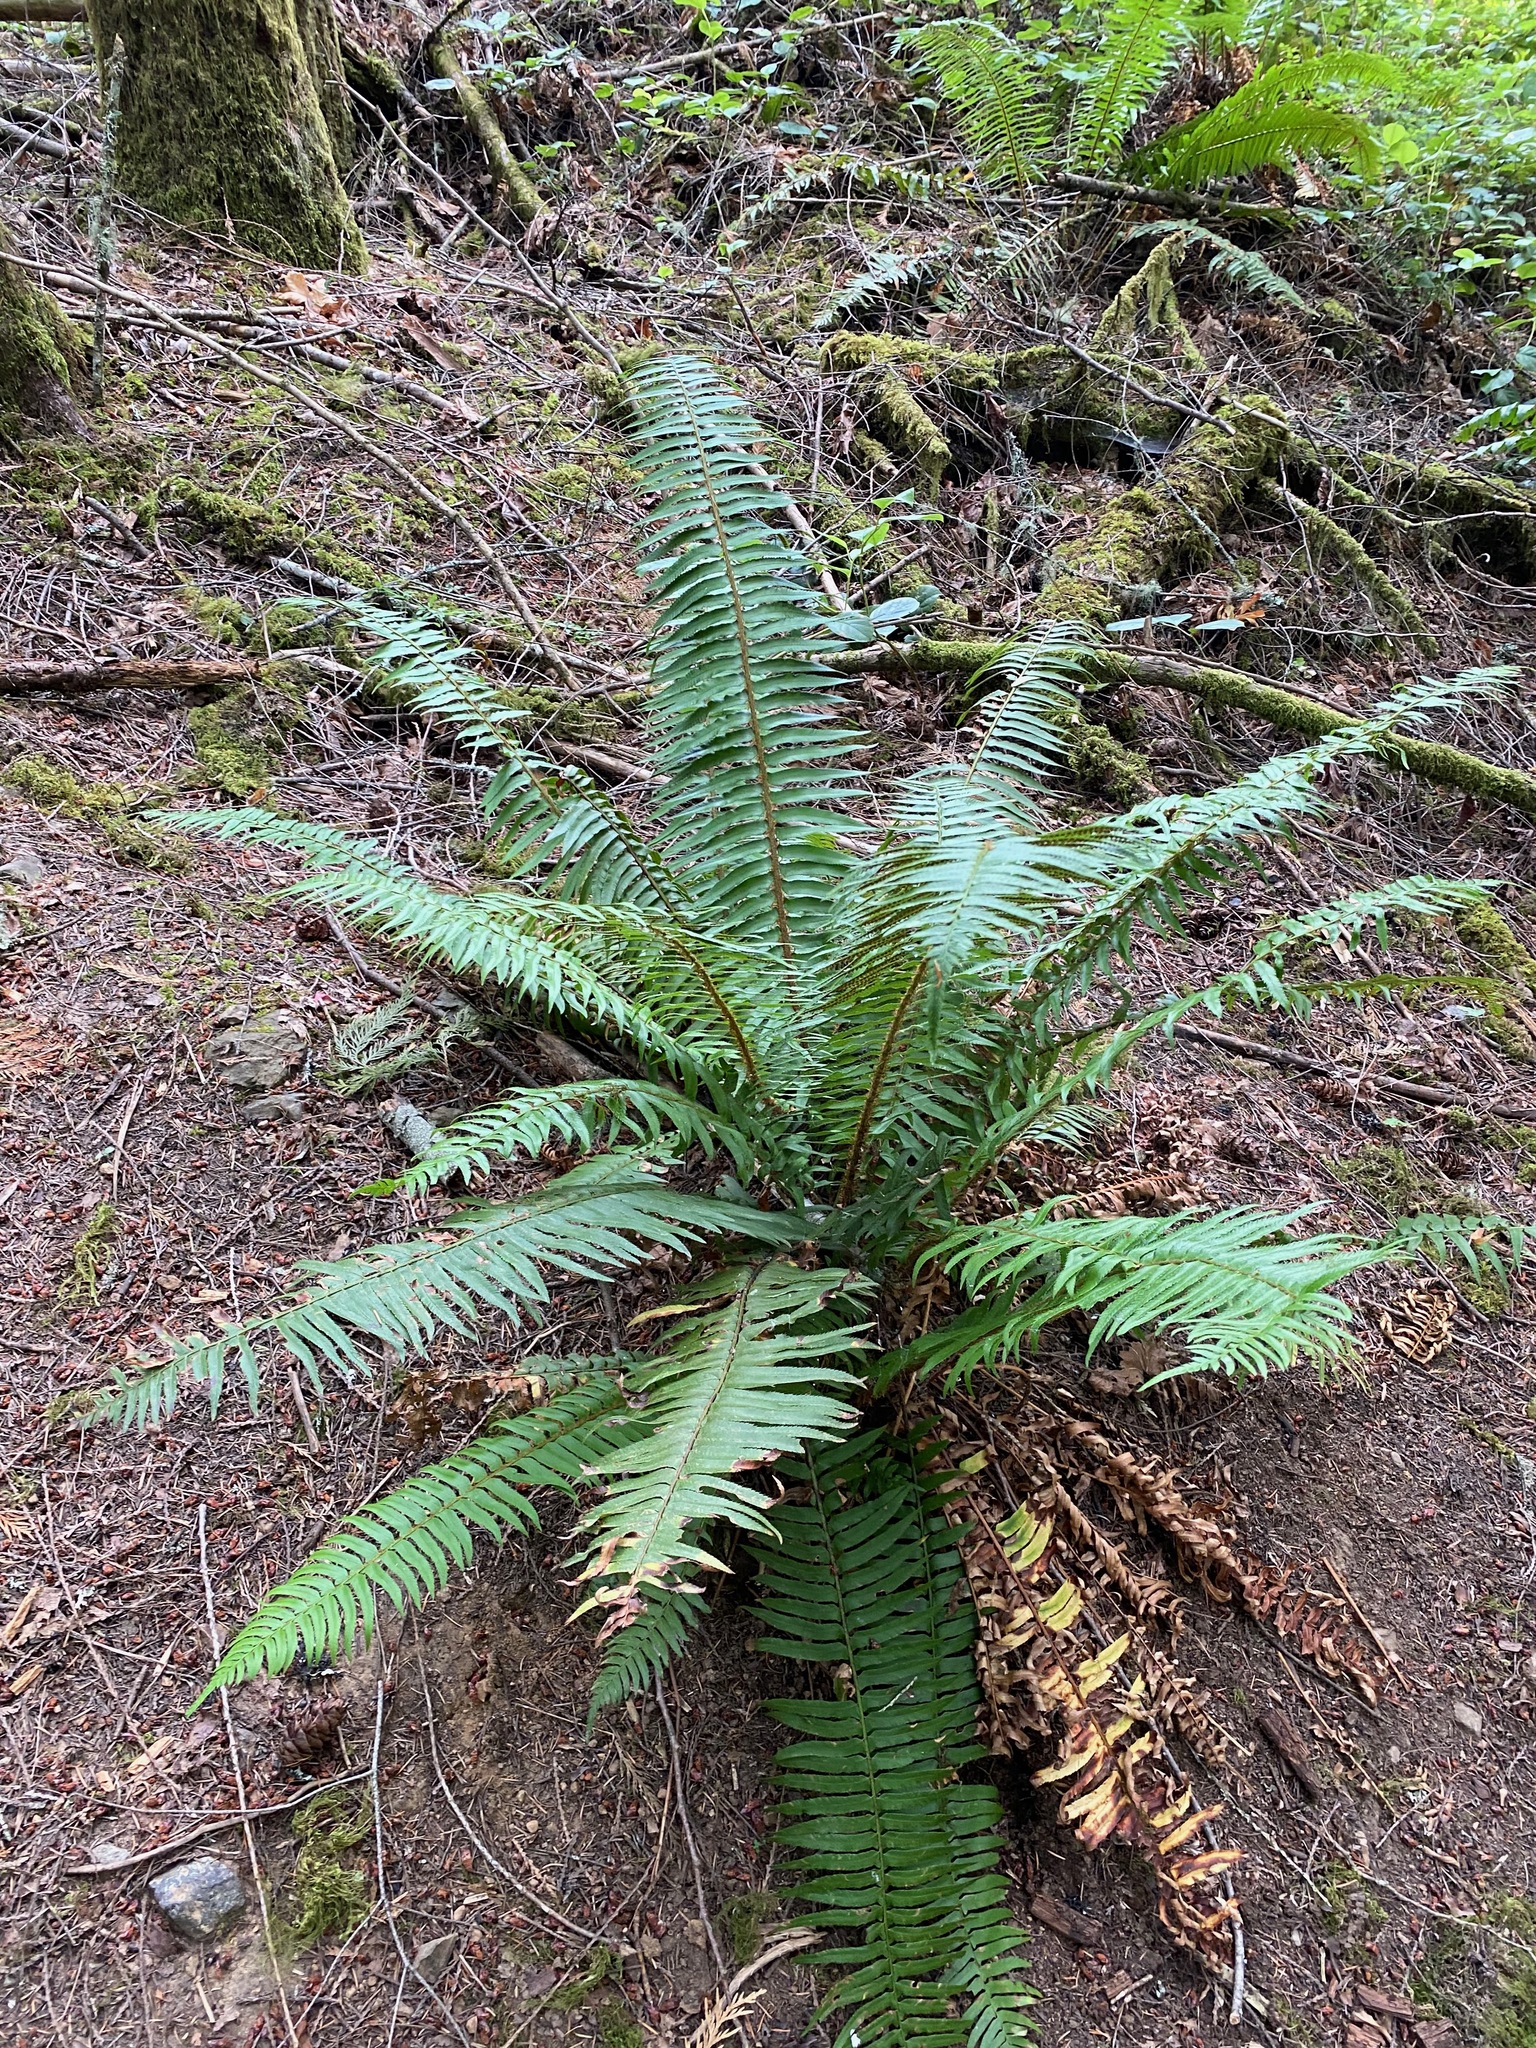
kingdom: Plantae
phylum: Tracheophyta
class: Polypodiopsida
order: Polypodiales
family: Dryopteridaceae
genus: Polystichum
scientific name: Polystichum munitum
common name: Western sword-fern
